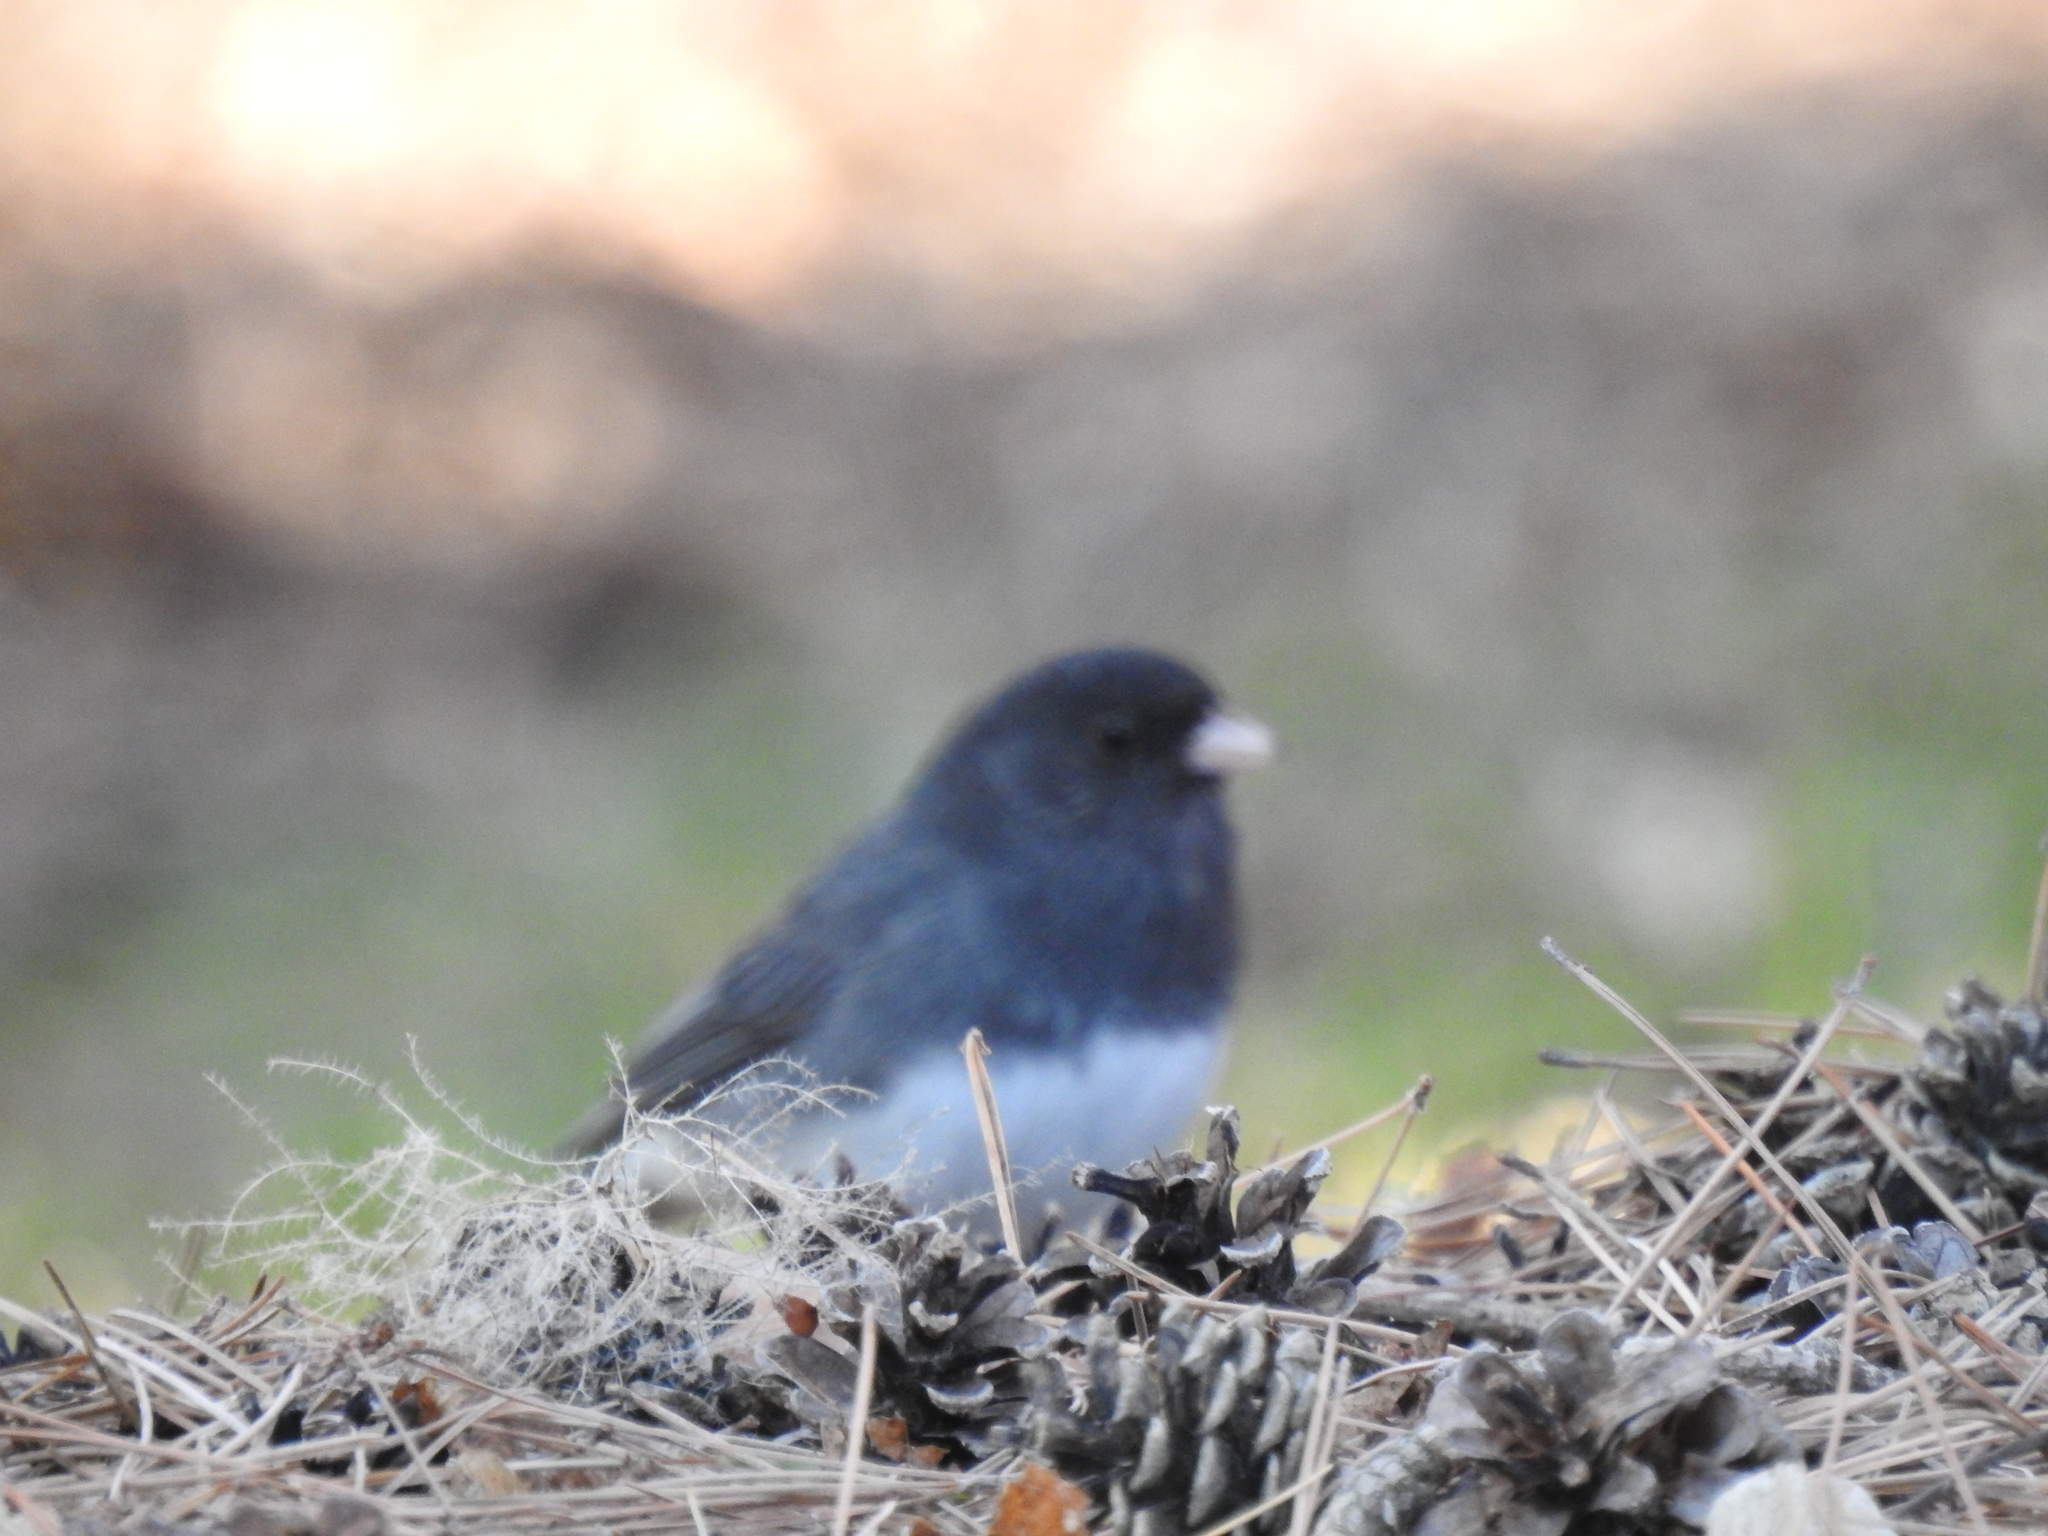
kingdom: Animalia
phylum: Chordata
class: Aves
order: Passeriformes
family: Passerellidae
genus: Junco
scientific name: Junco hyemalis
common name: Dark-eyed junco
